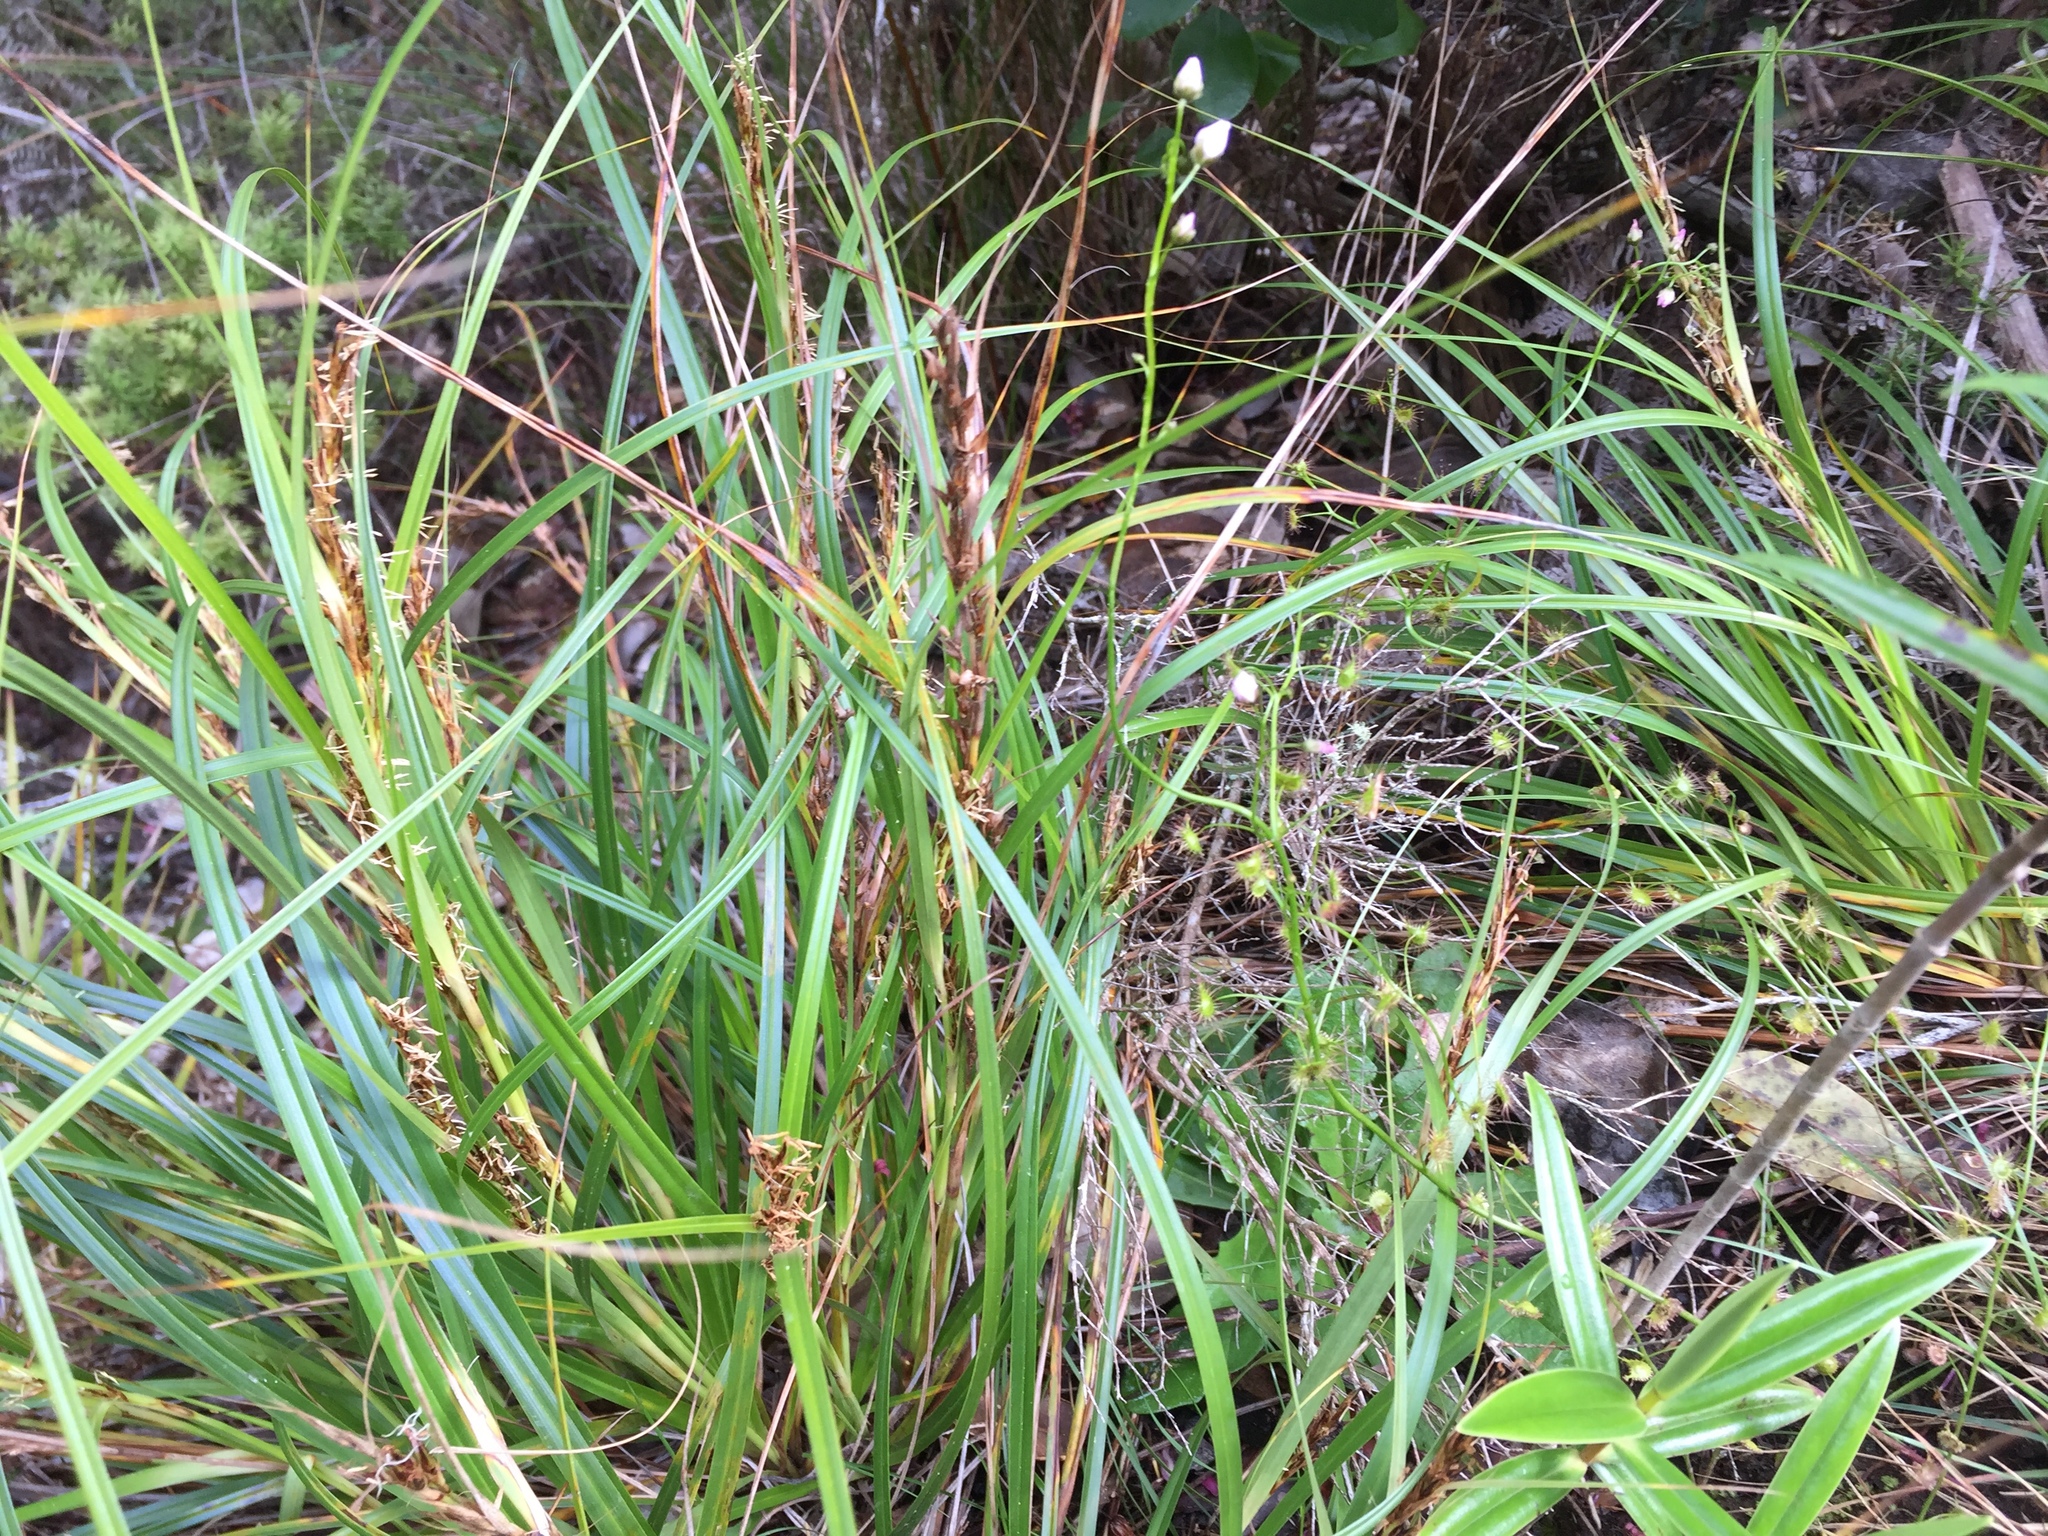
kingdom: Plantae
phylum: Tracheophyta
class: Liliopsida
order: Poales
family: Cyperaceae
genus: Morelotia
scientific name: Morelotia affinis
